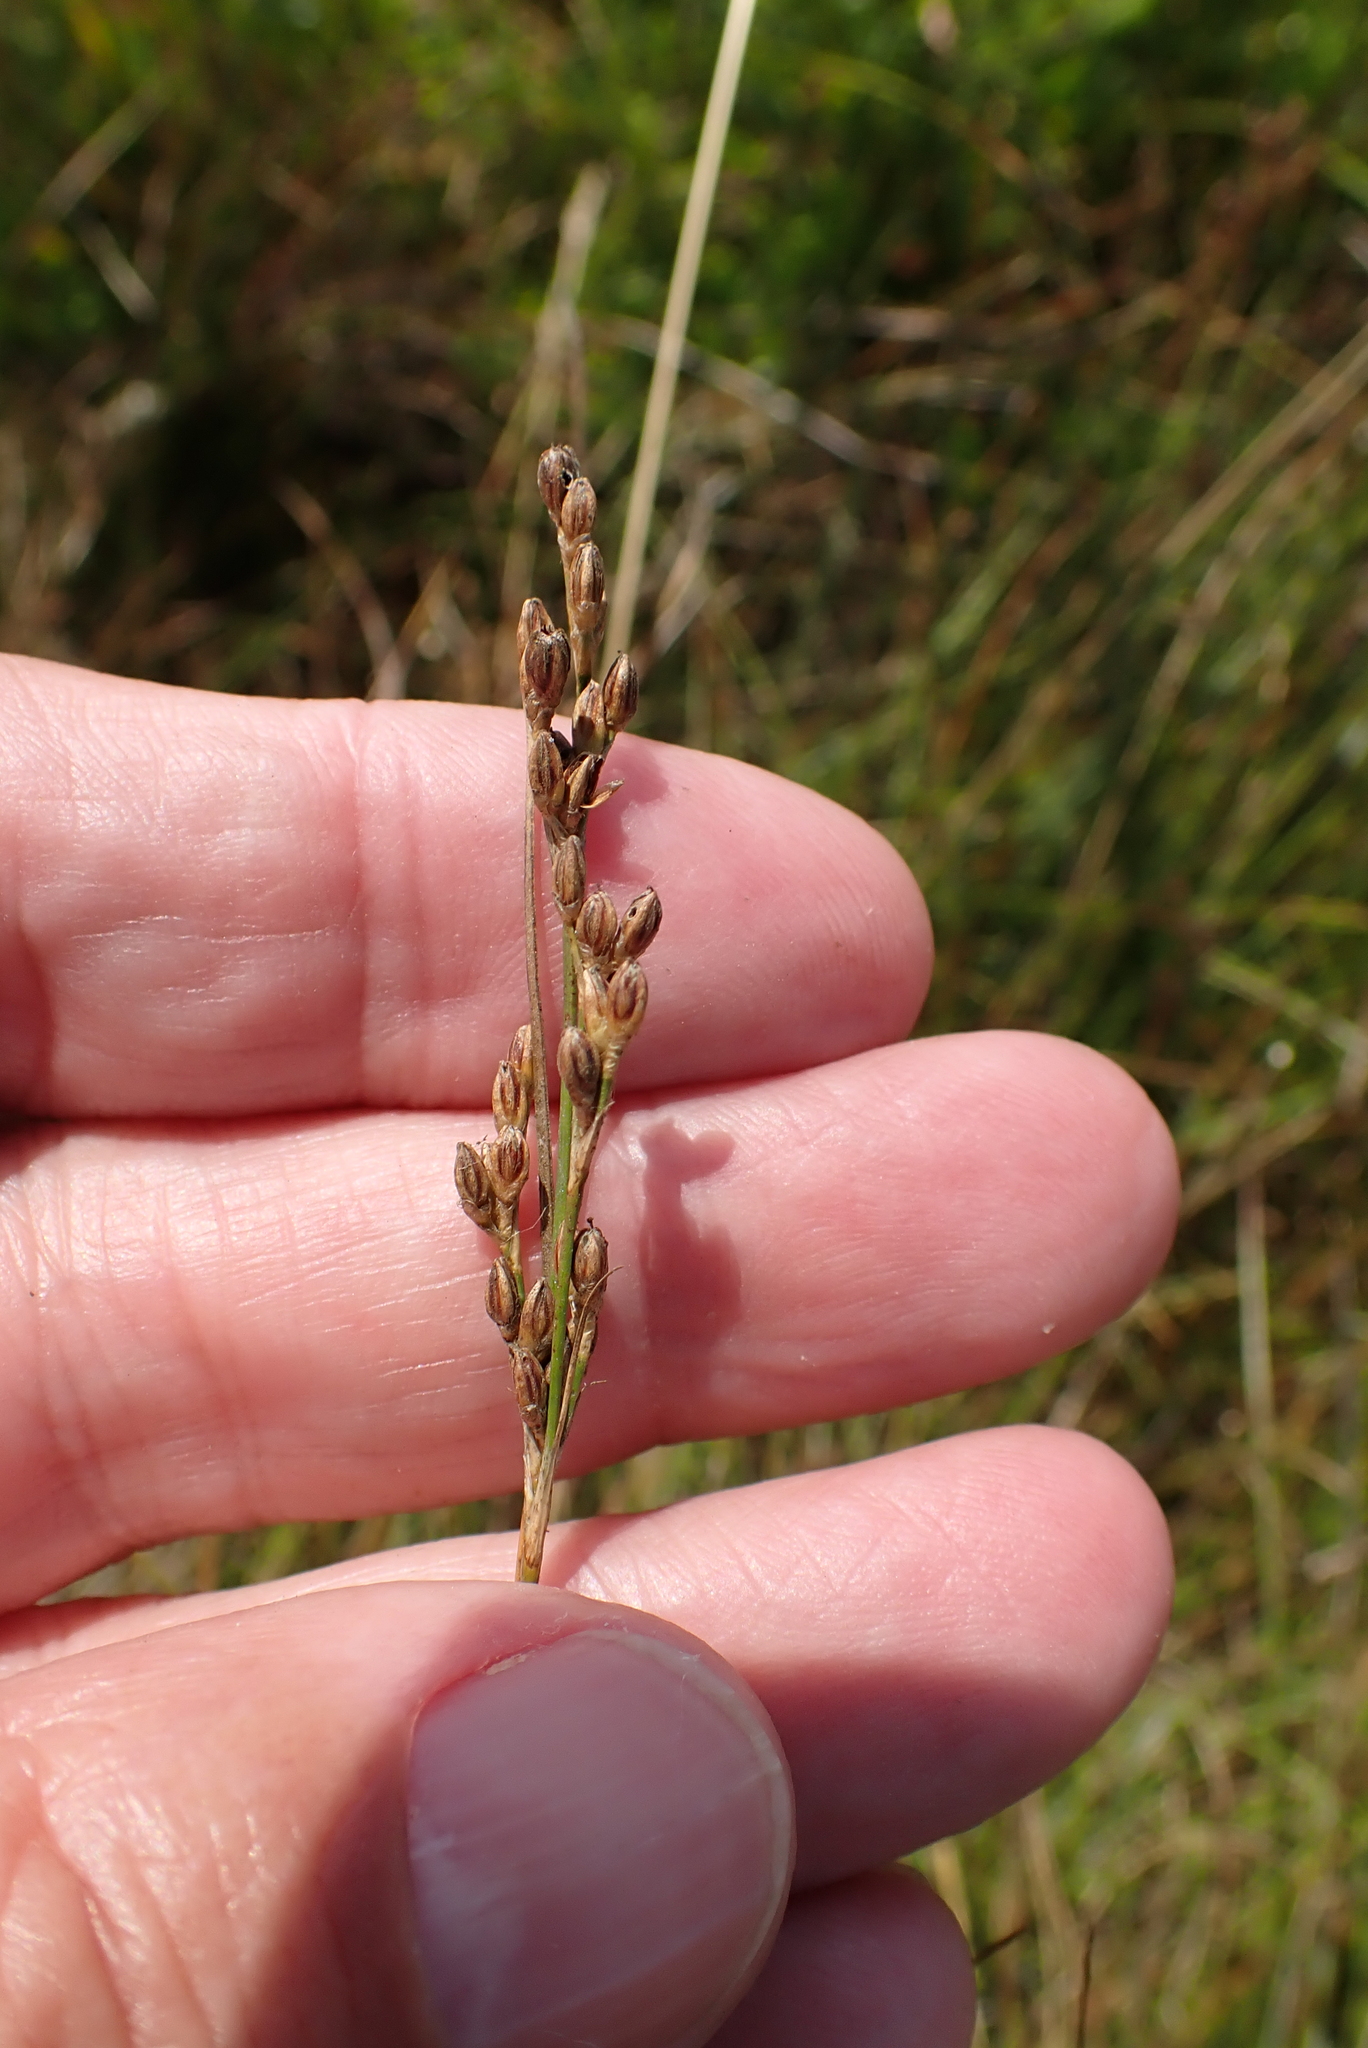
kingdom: Plantae
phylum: Tracheophyta
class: Liliopsida
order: Poales
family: Juncaceae
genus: Juncus
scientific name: Juncus gerardi
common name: Saltmarsh rush
